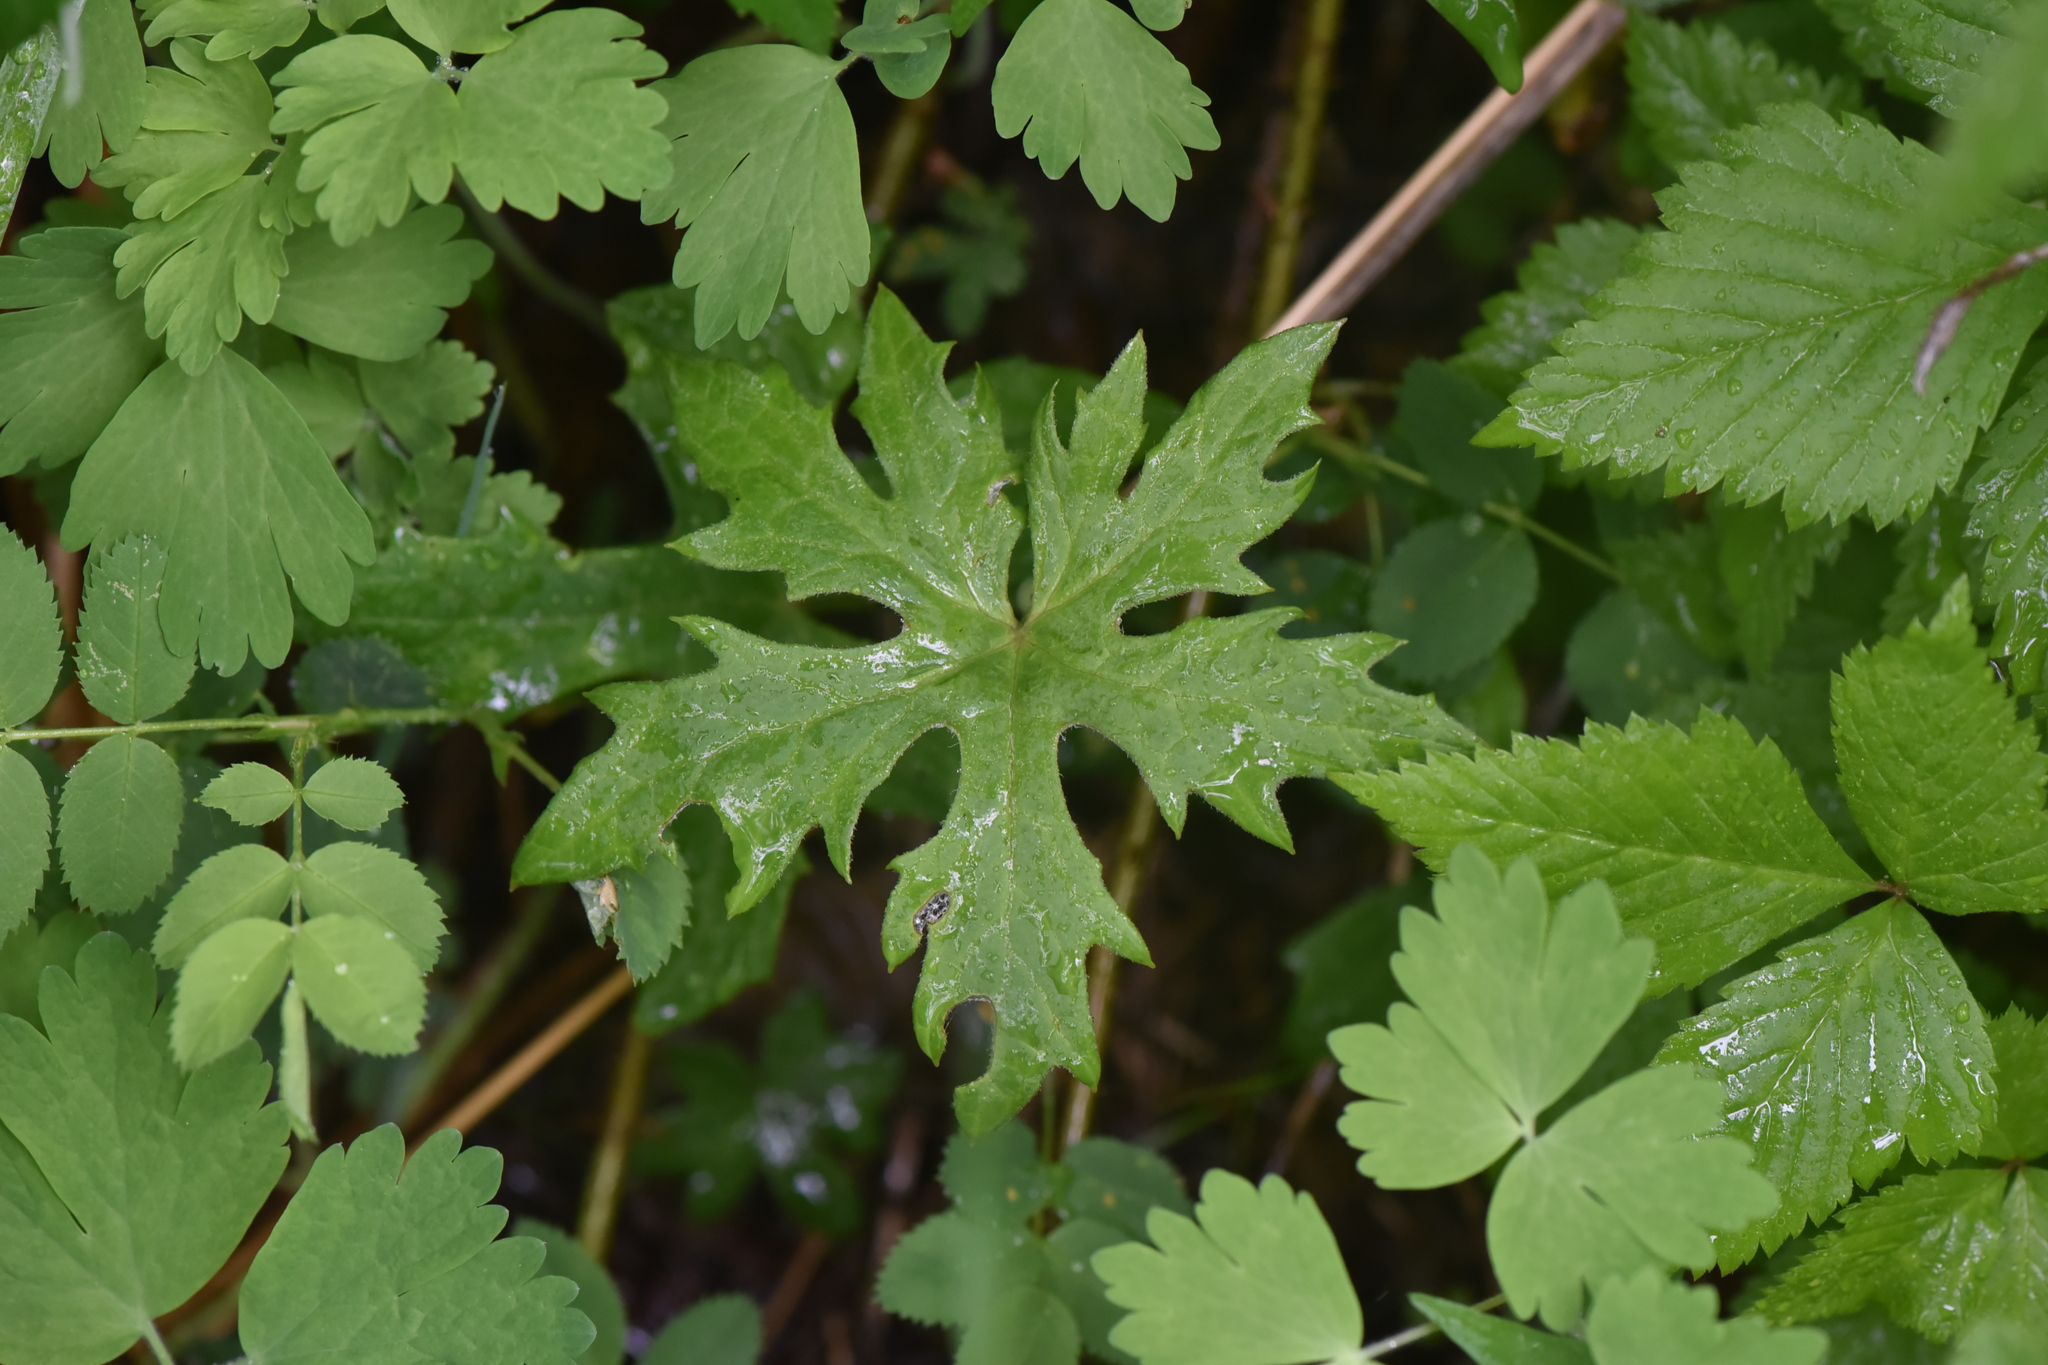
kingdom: Plantae
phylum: Tracheophyta
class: Magnoliopsida
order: Asterales
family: Asteraceae
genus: Petasites
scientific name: Petasites frigidus
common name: Arctic butterbur
